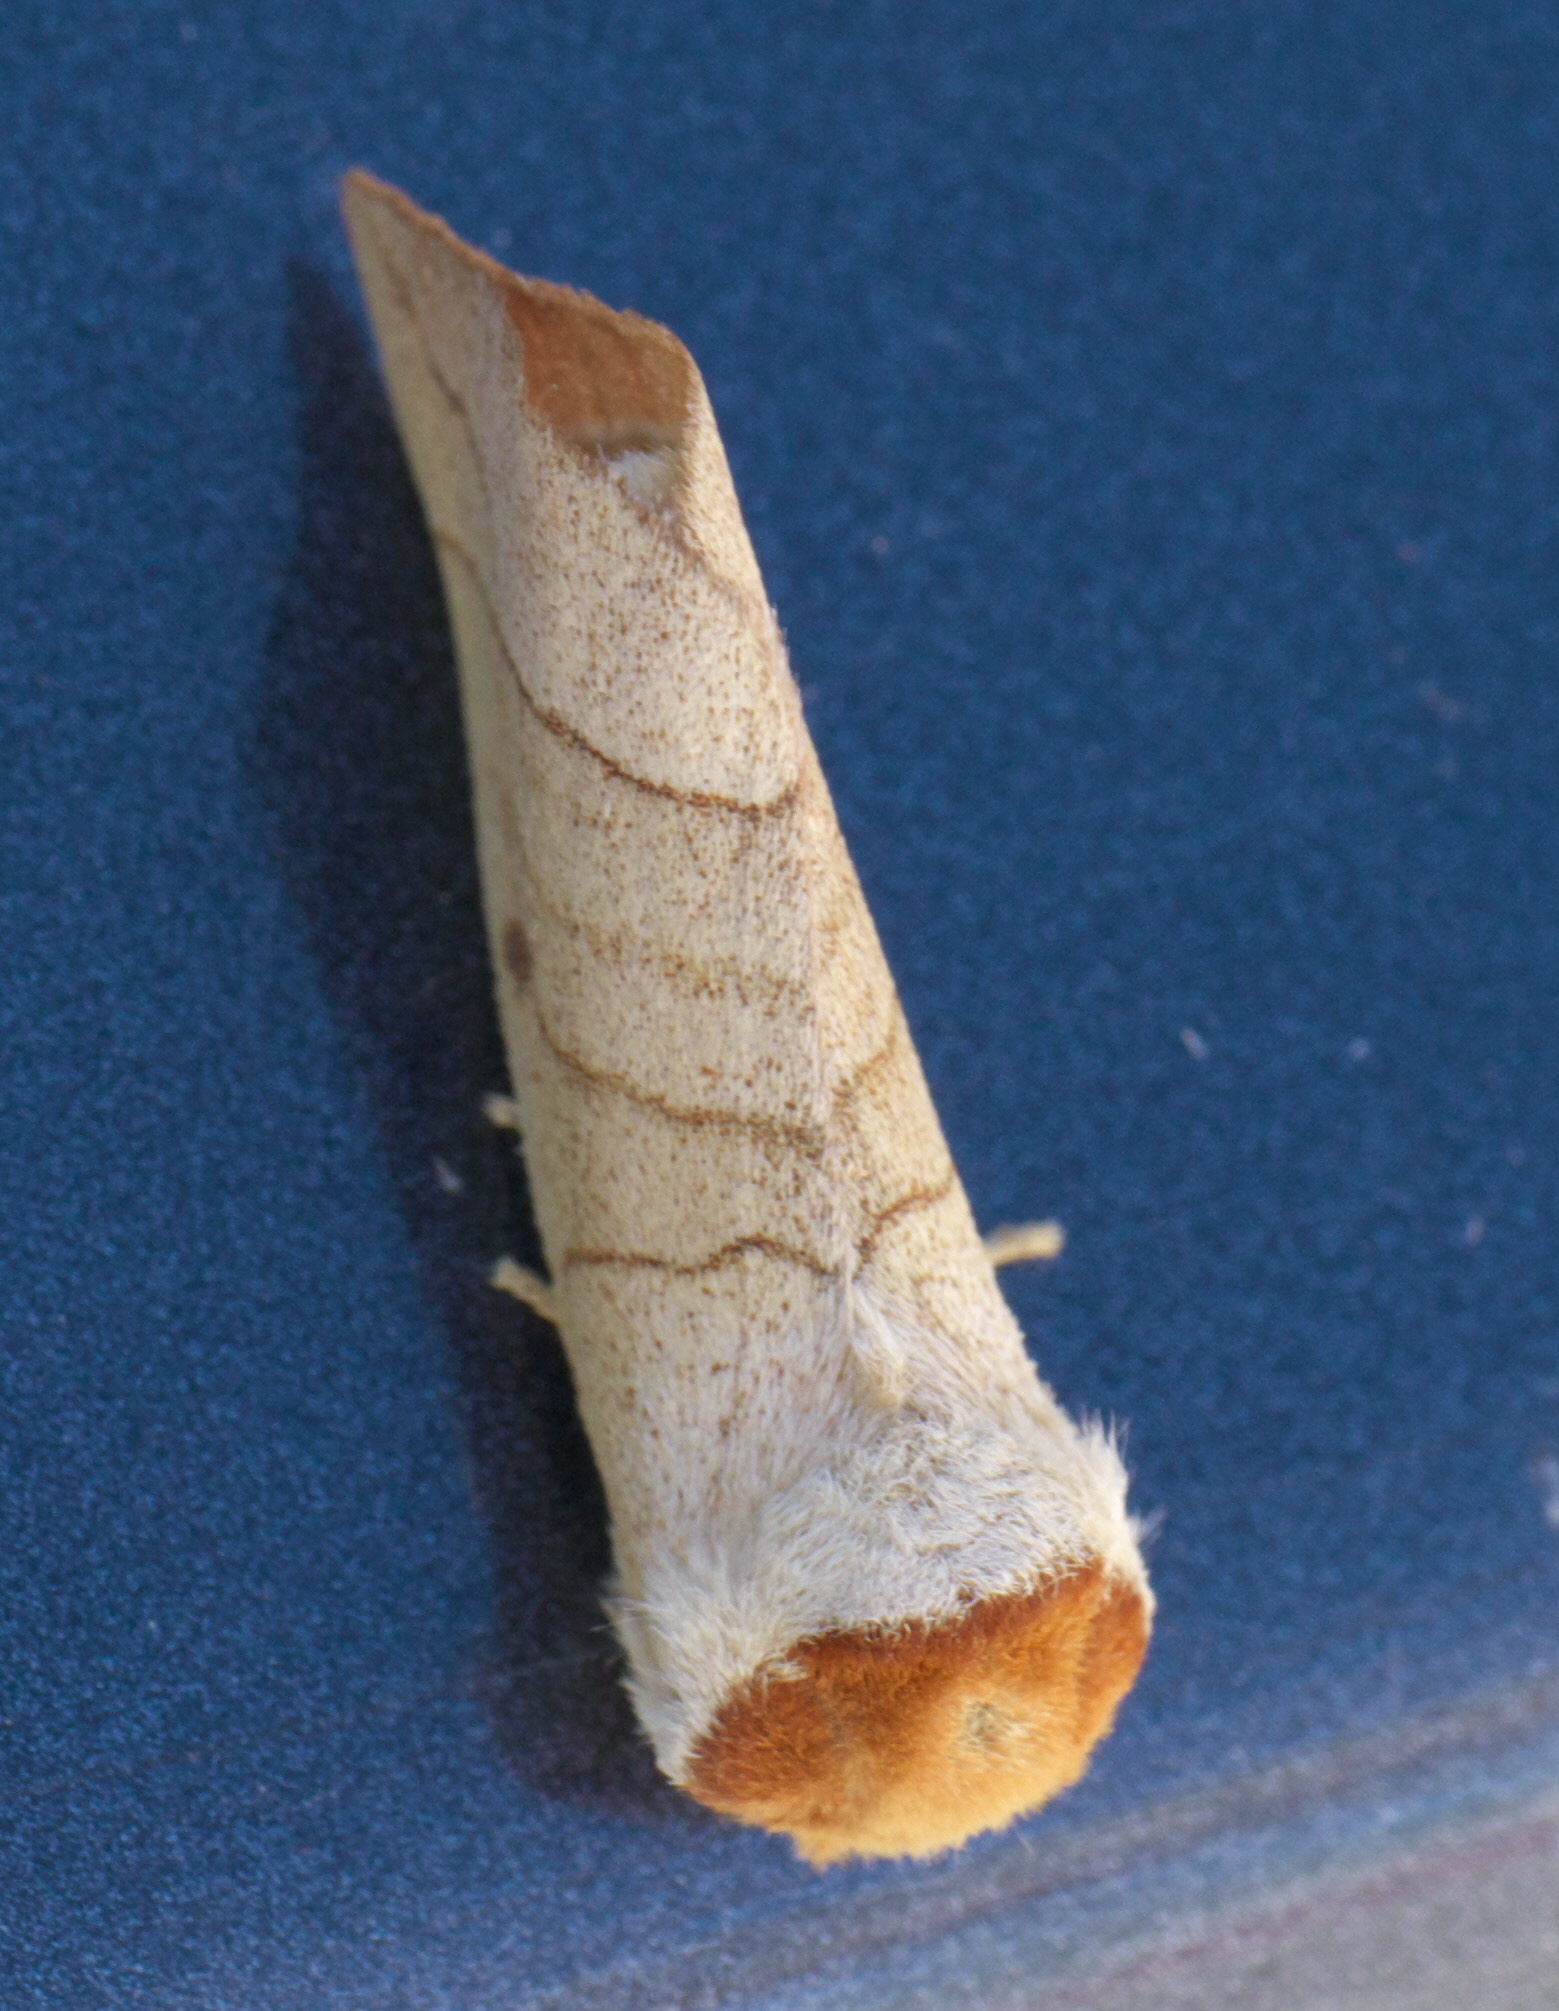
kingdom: Animalia
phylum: Arthropoda
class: Insecta
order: Lepidoptera
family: Notodontidae
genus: Datana
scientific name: Datana perspicua
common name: Spotted datana
